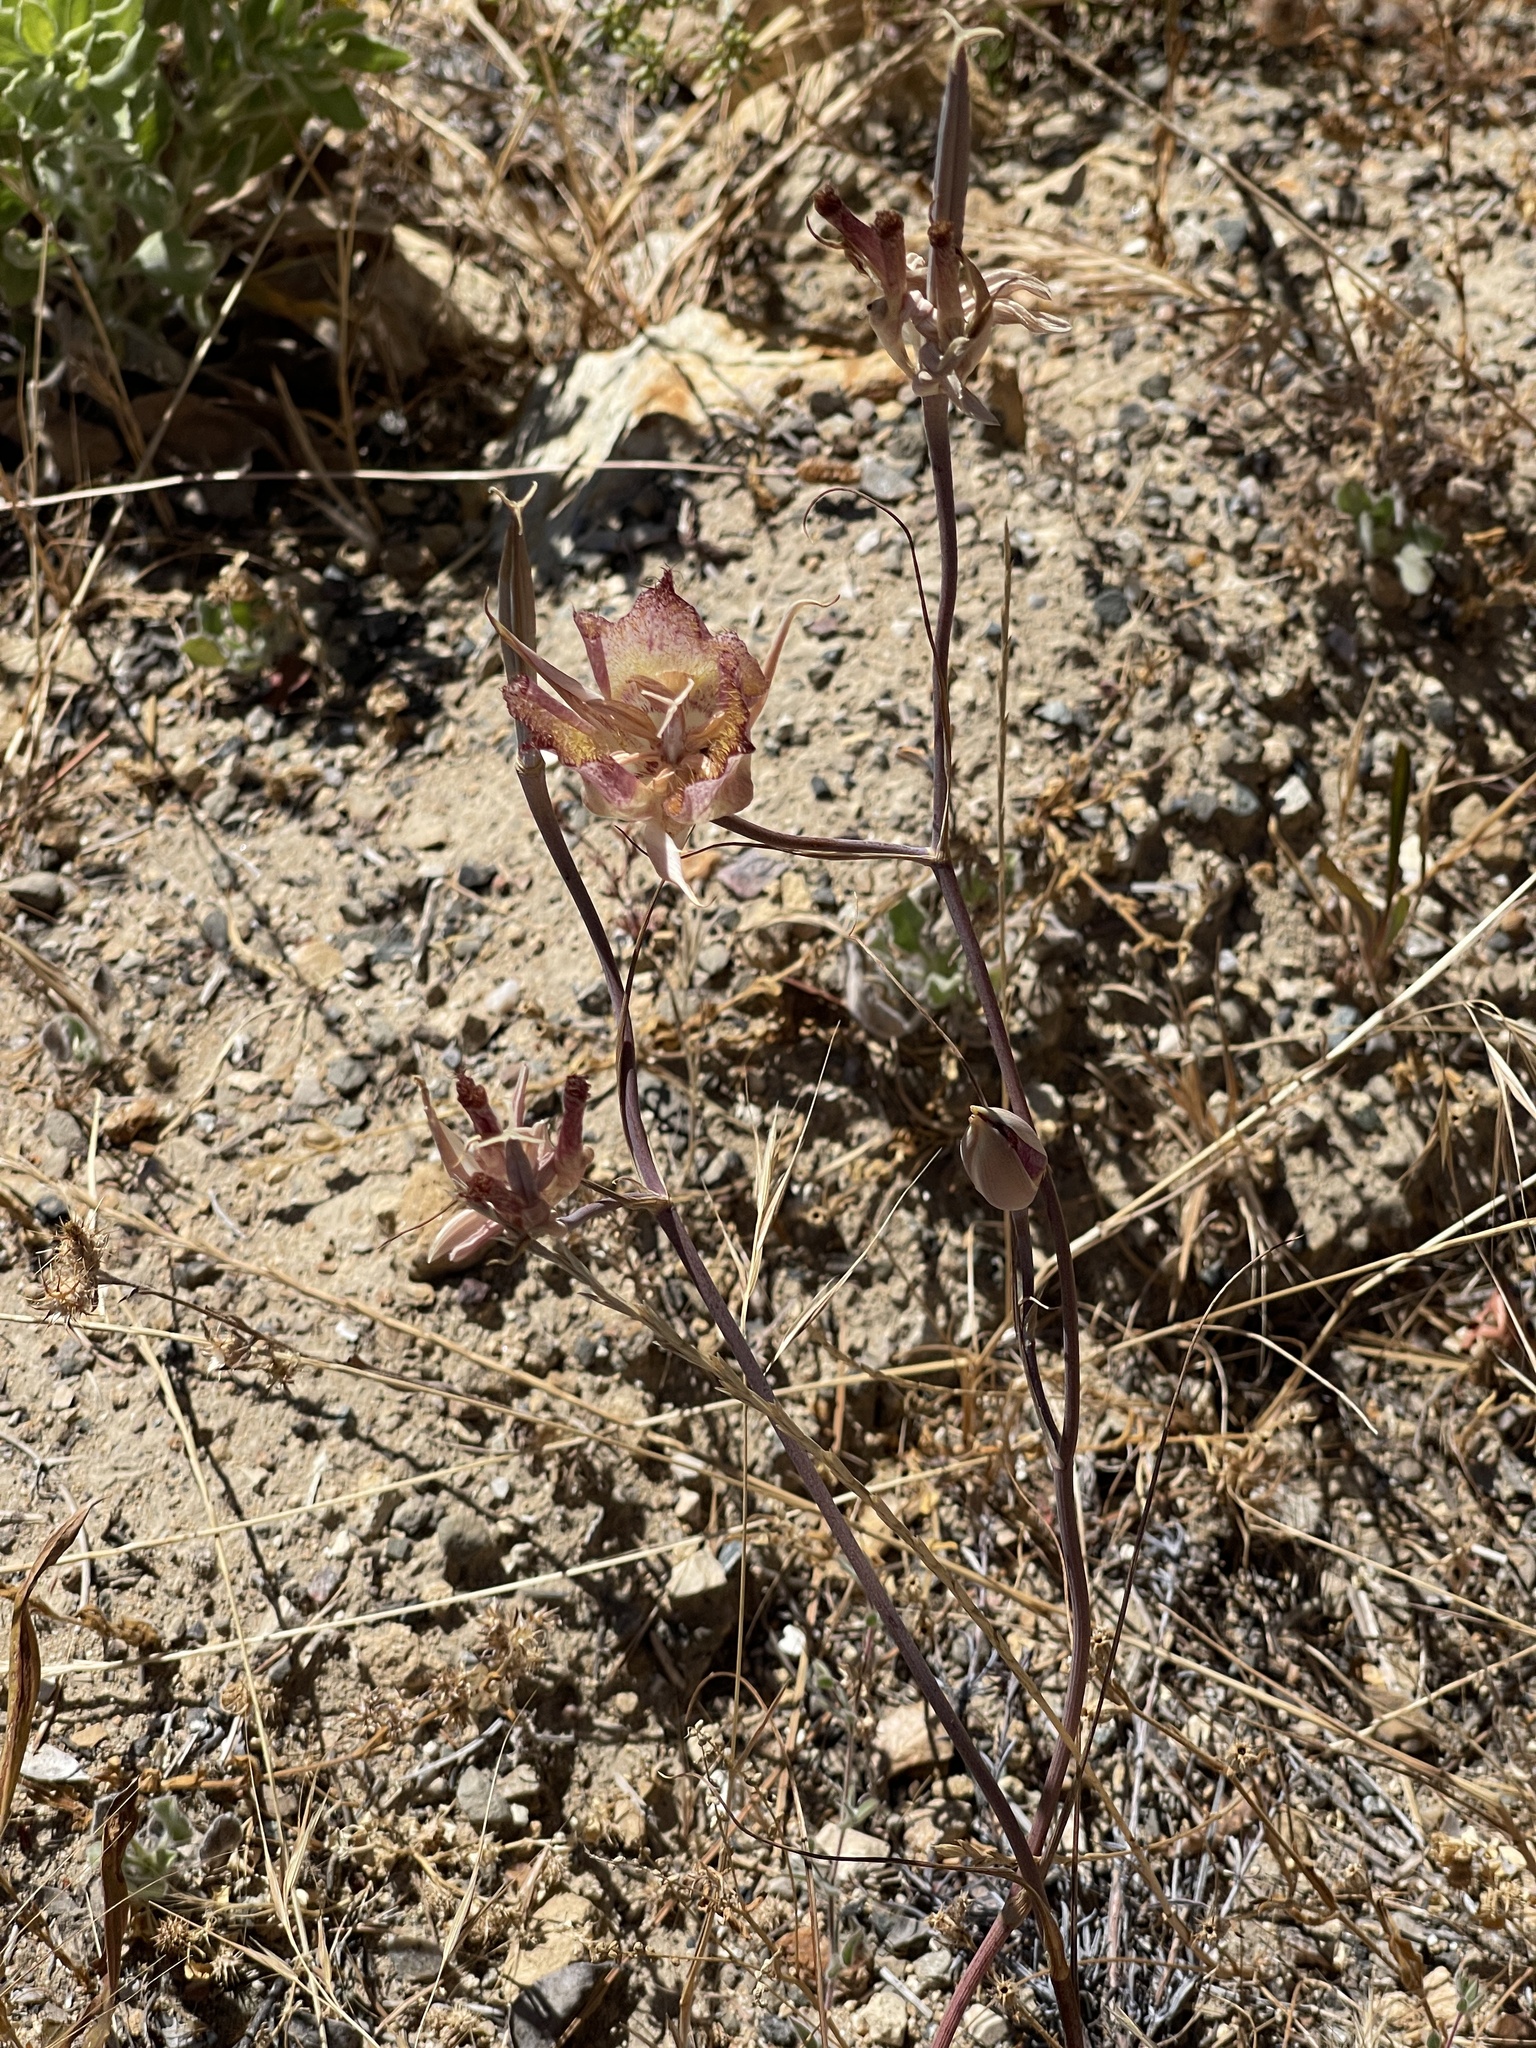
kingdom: Plantae
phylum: Tracheophyta
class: Liliopsida
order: Liliales
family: Liliaceae
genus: Calochortus
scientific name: Calochortus fimbriatus
